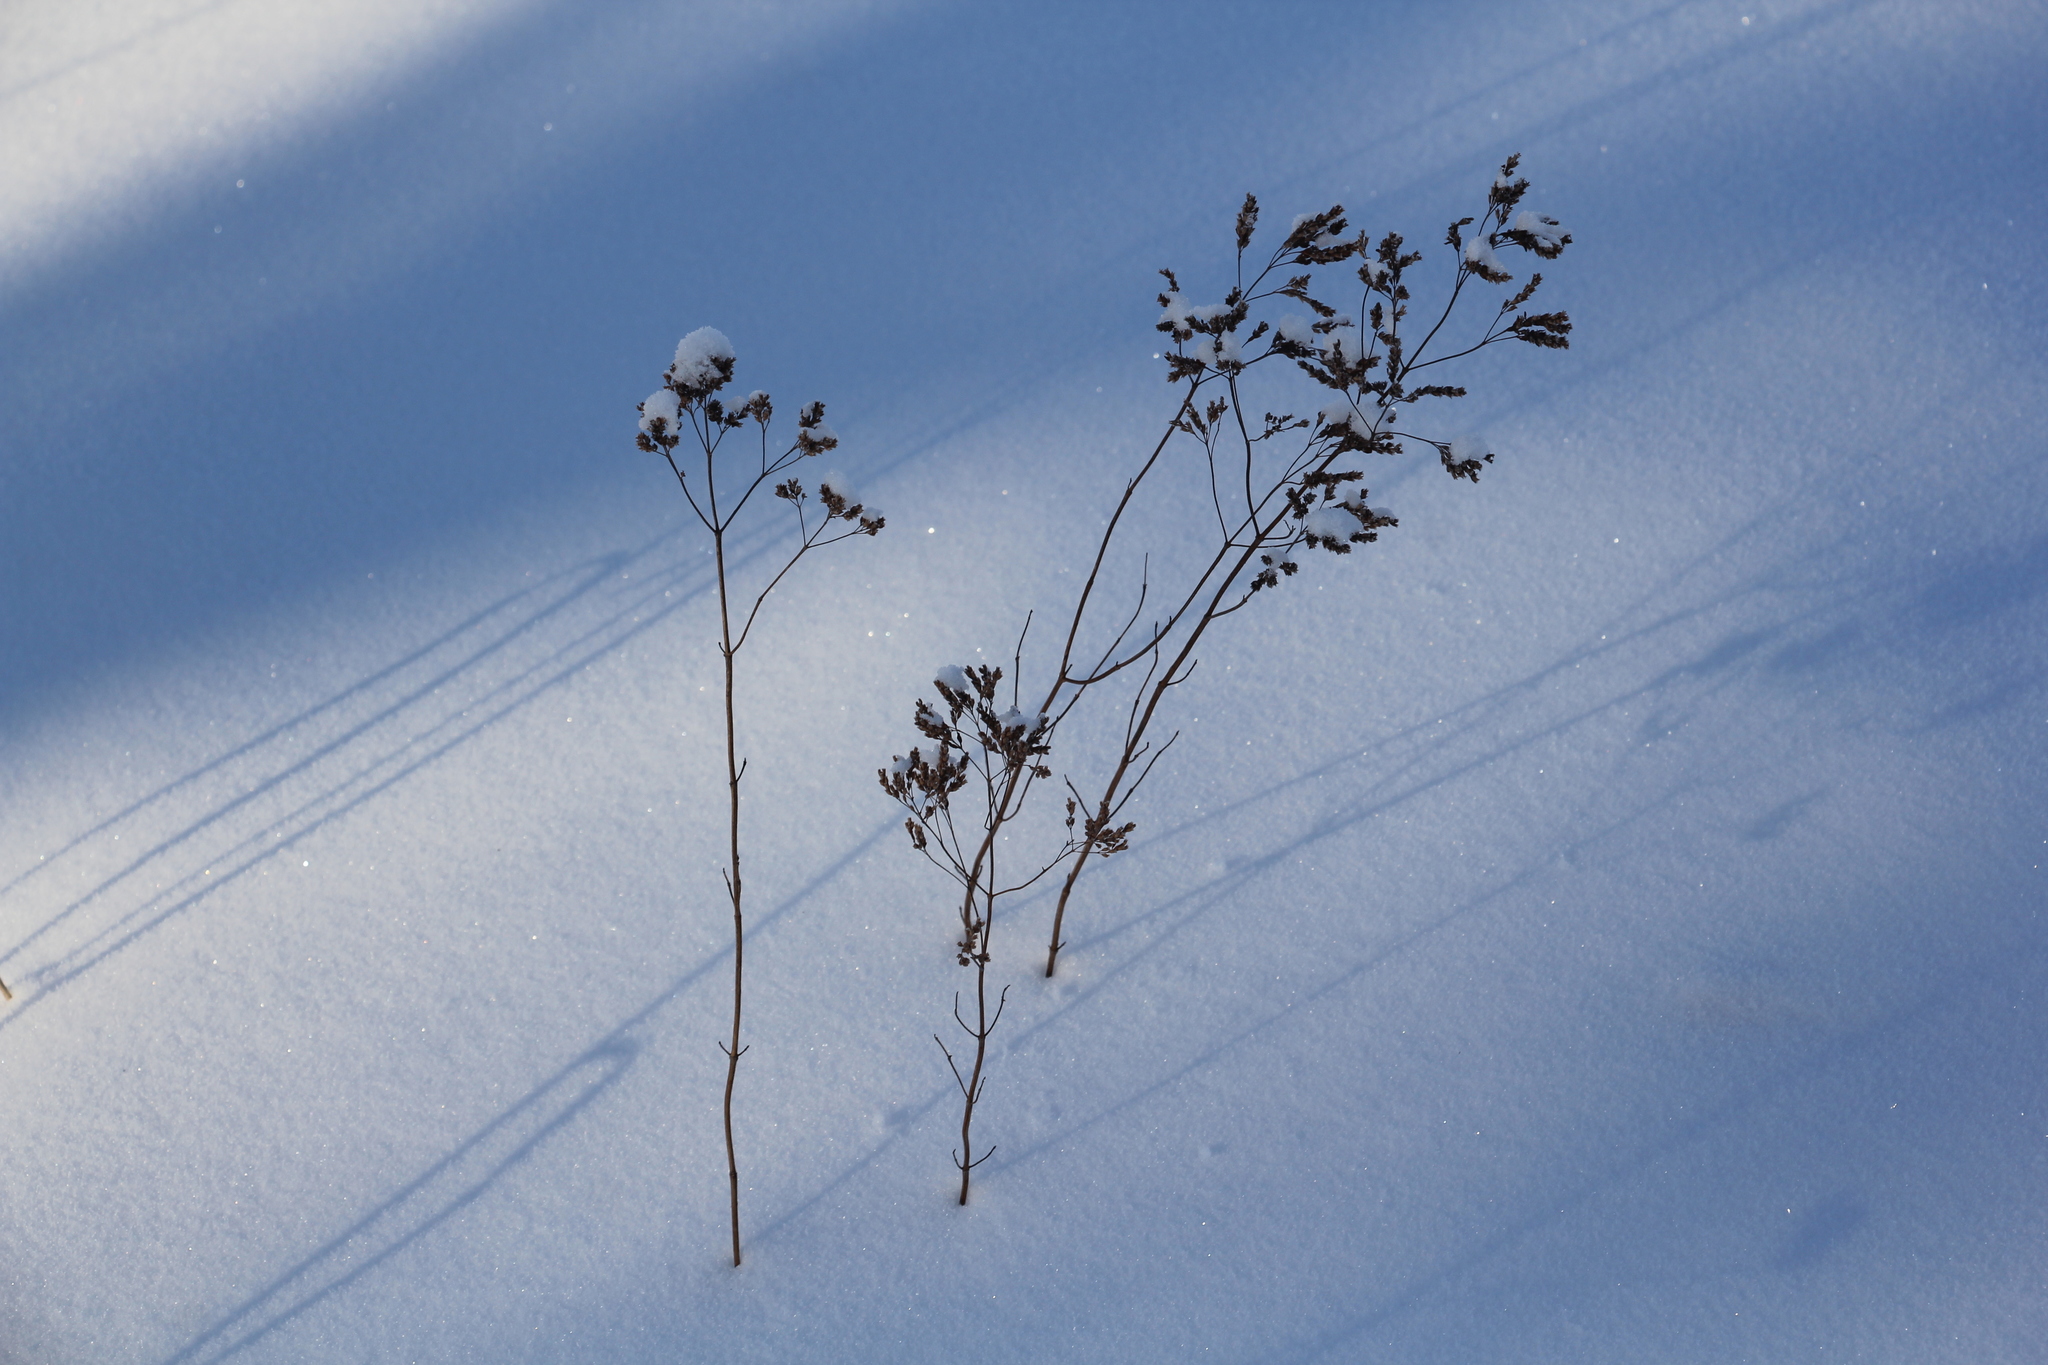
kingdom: Plantae
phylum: Tracheophyta
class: Magnoliopsida
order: Lamiales
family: Lamiaceae
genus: Origanum
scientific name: Origanum vulgare
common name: Wild marjoram
